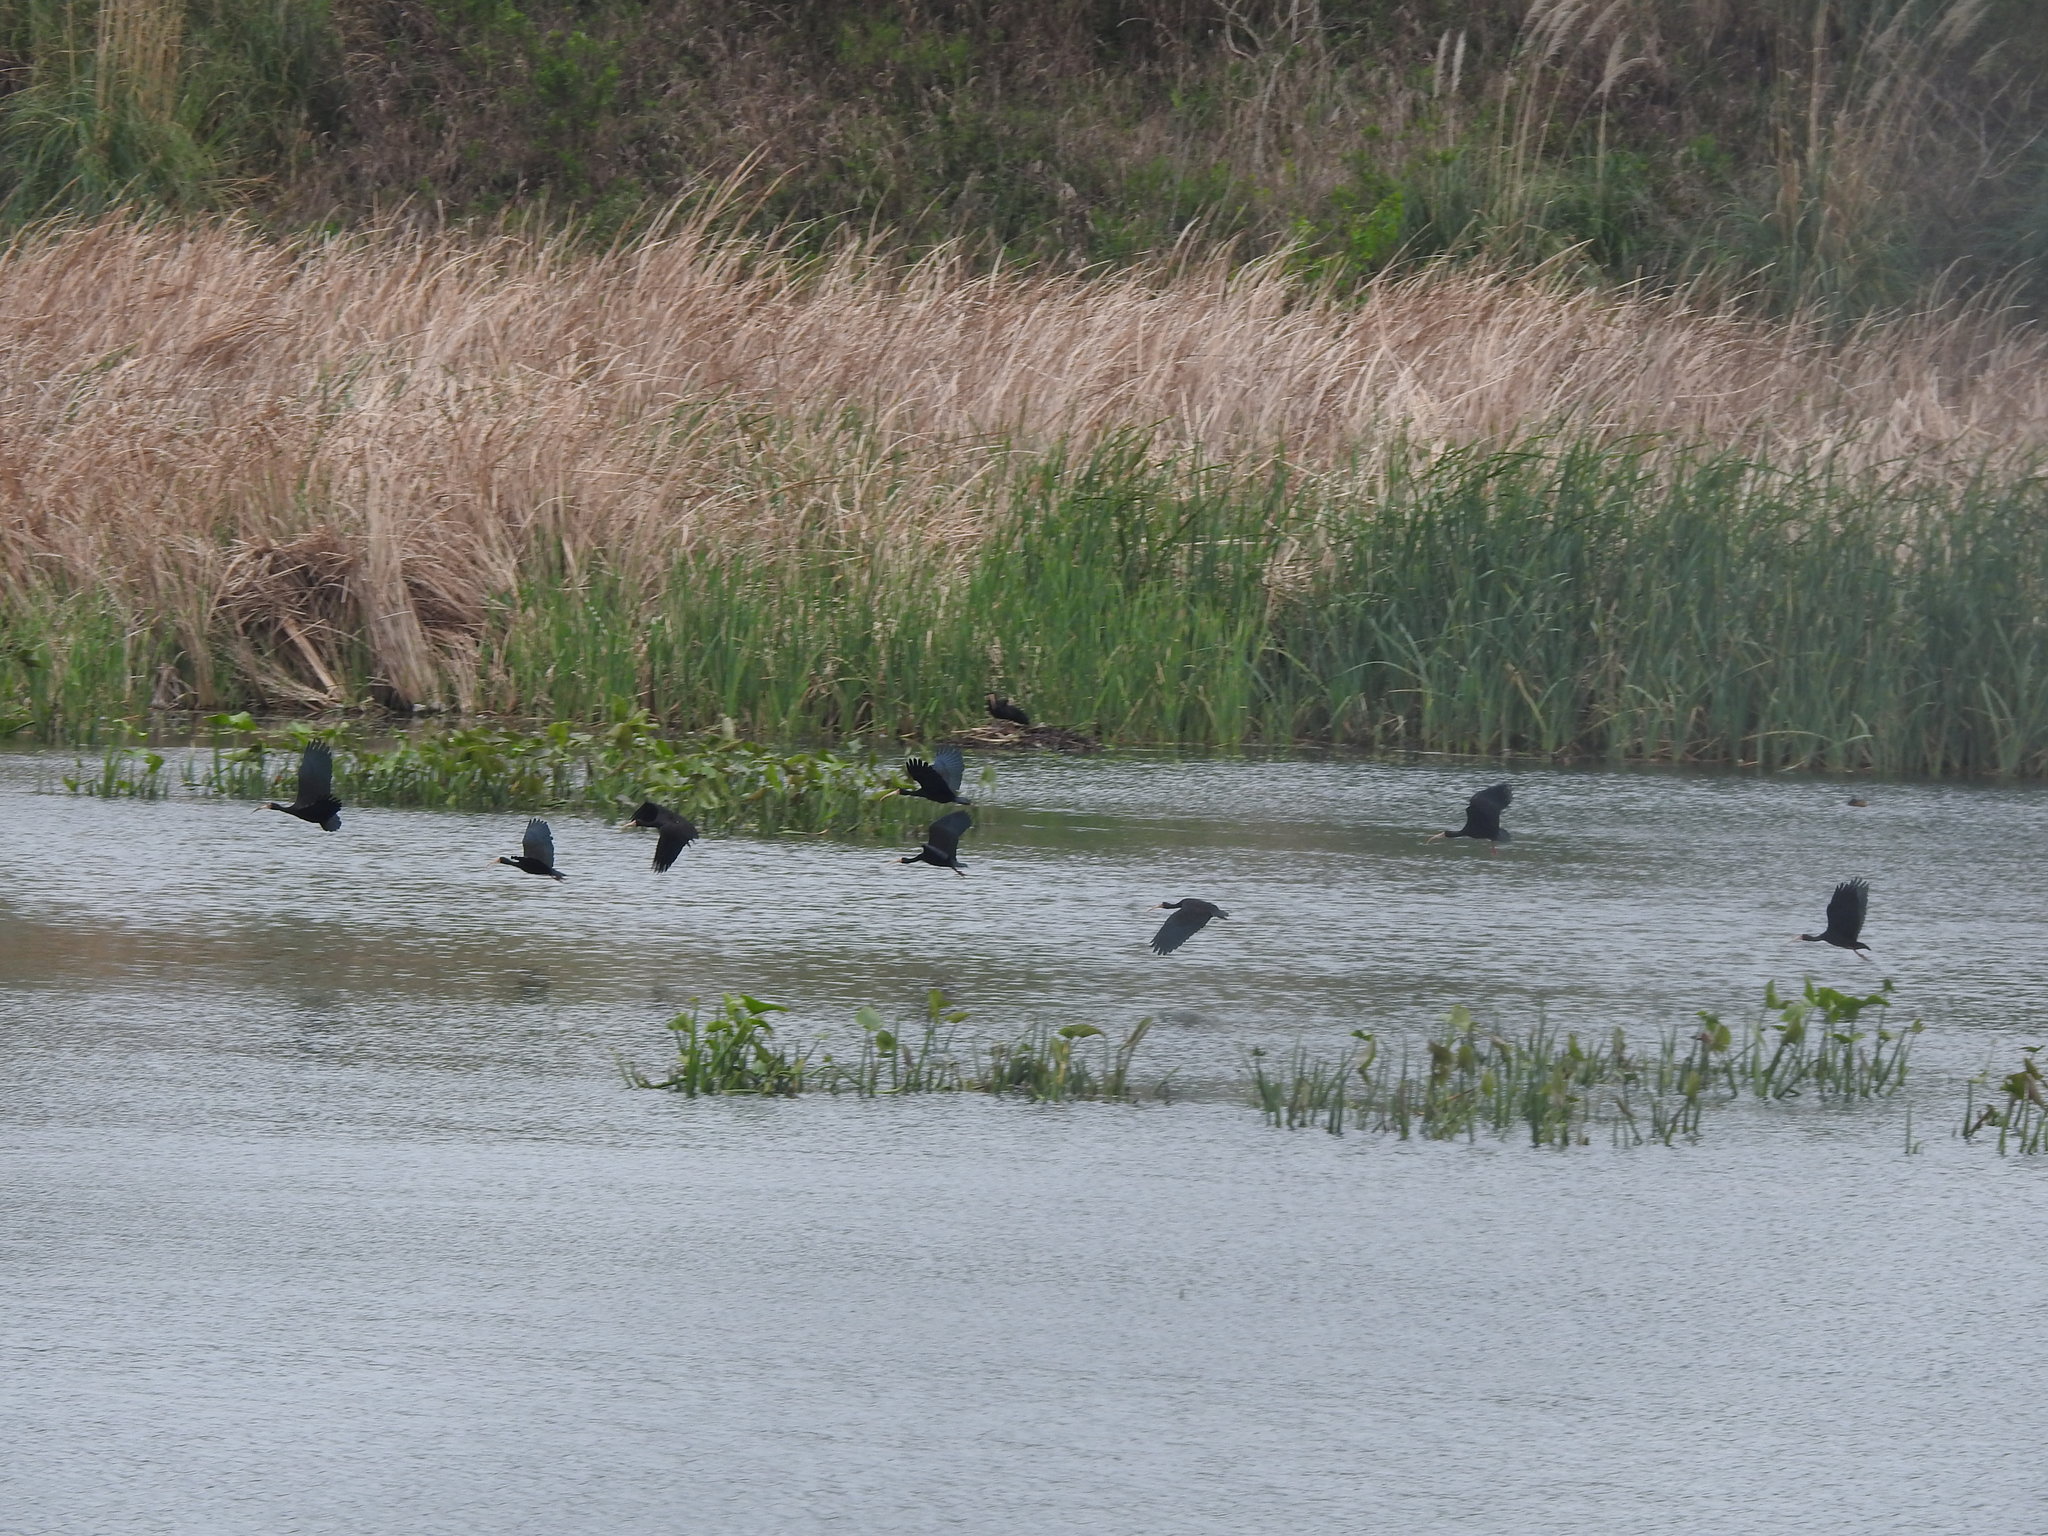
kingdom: Animalia
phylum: Chordata
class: Aves
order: Pelecaniformes
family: Threskiornithidae
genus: Phimosus
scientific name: Phimosus infuscatus
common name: Bare-faced ibis
